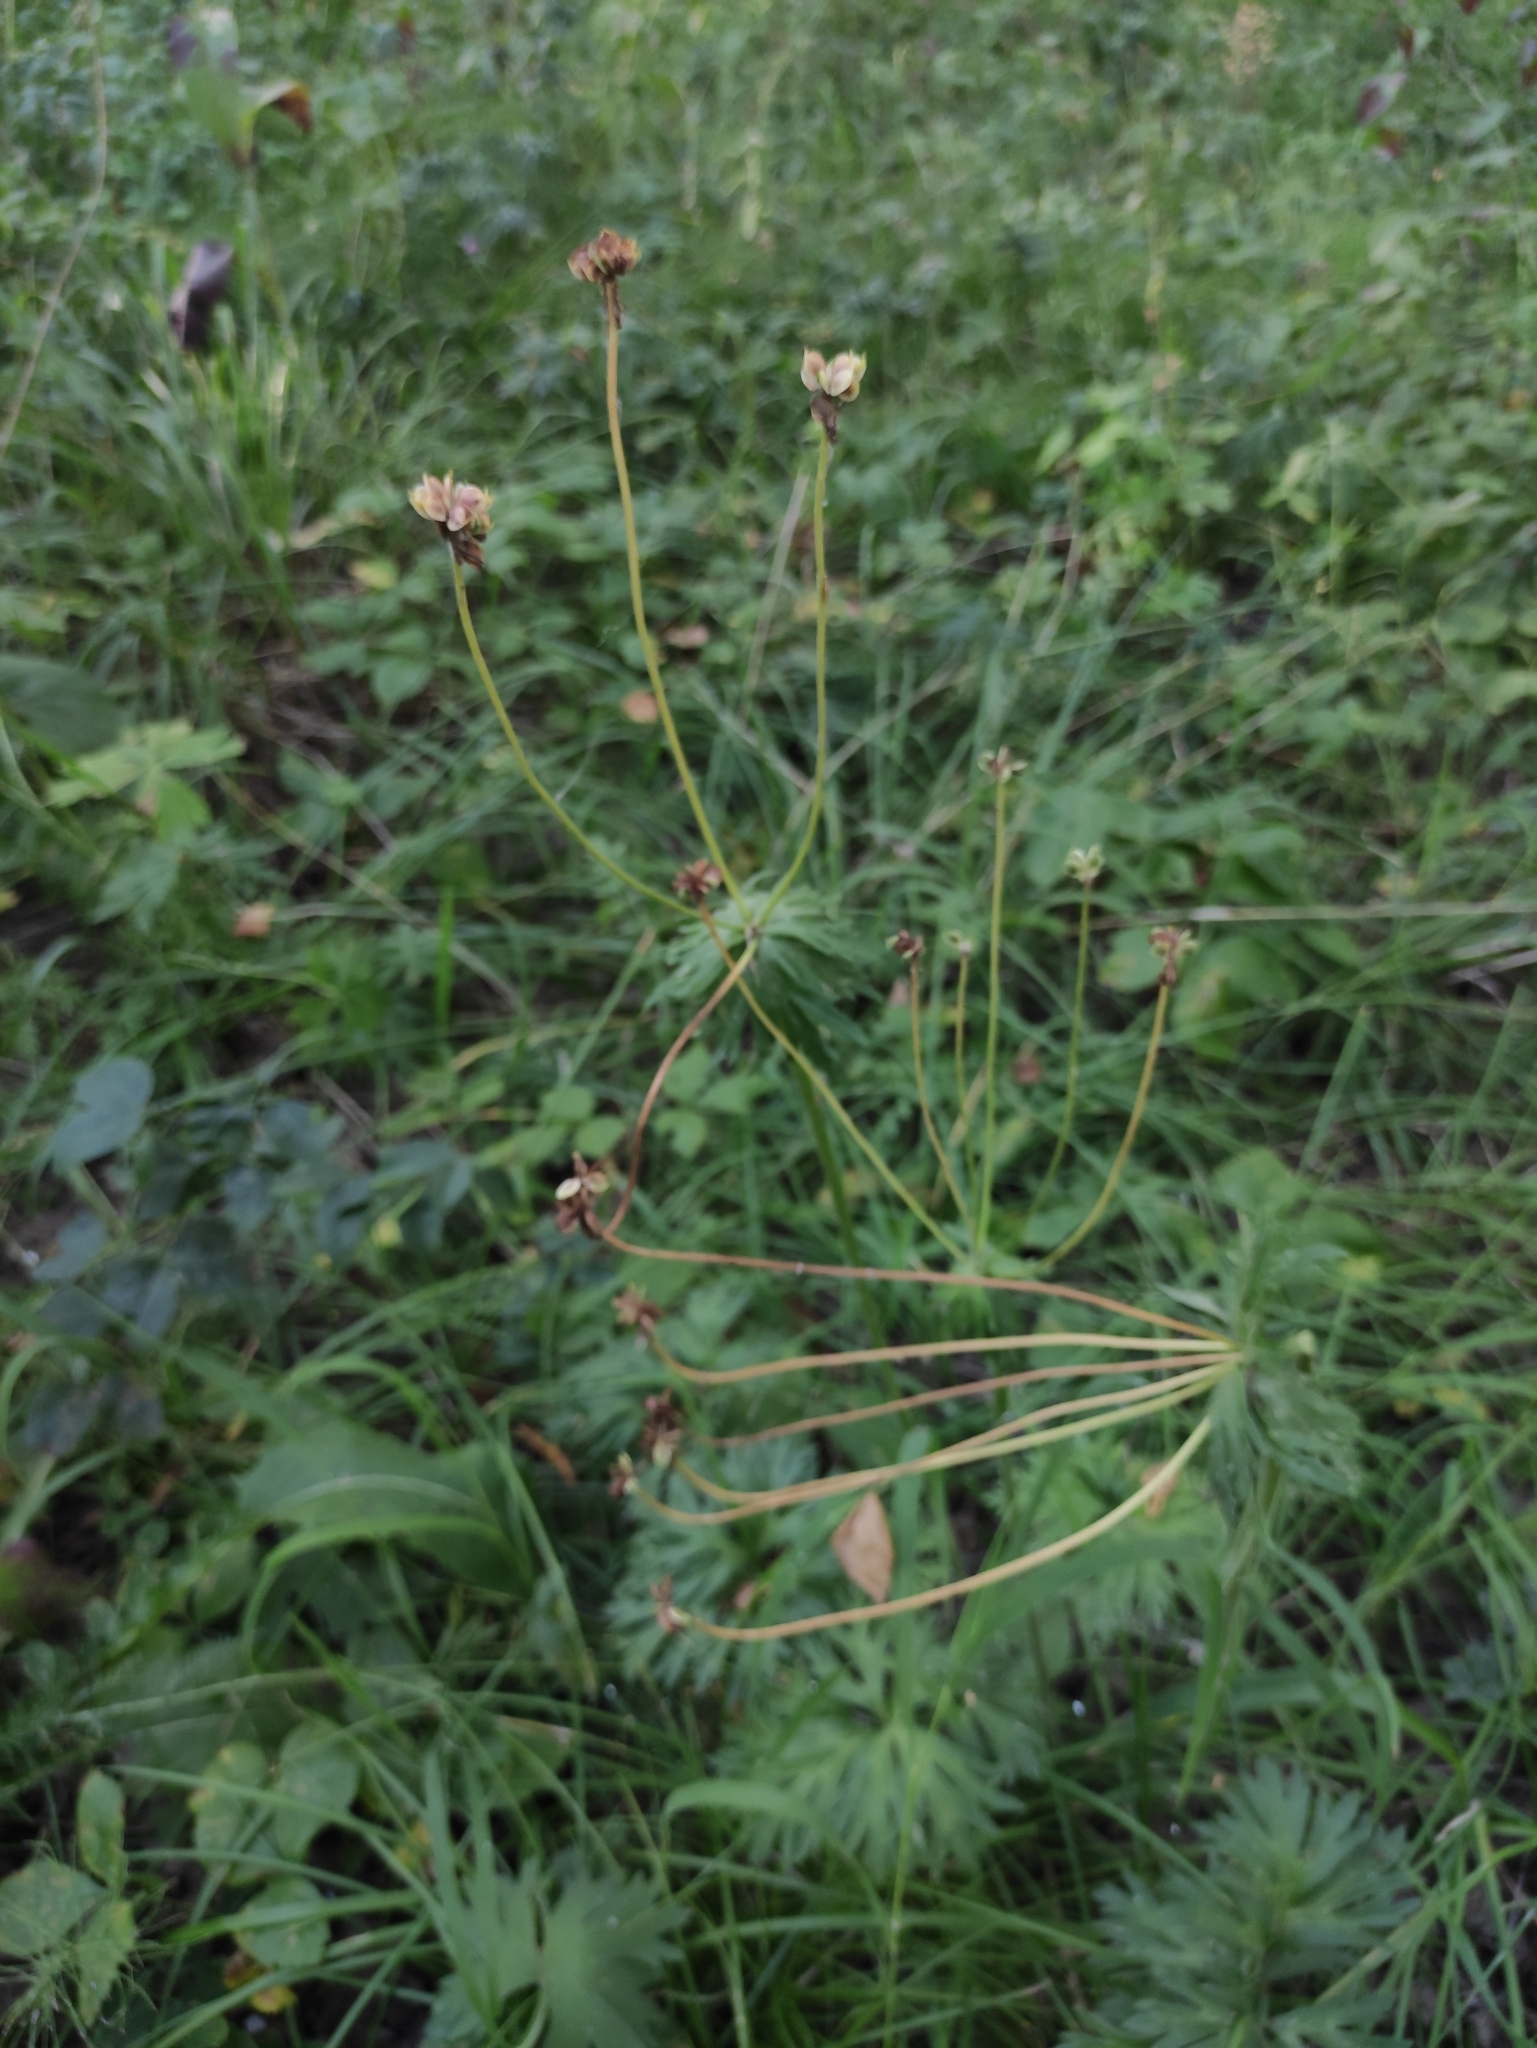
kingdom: Plantae
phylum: Tracheophyta
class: Magnoliopsida
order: Ranunculales
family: Ranunculaceae
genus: Anemonastrum
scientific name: Anemonastrum narcissiflorum
